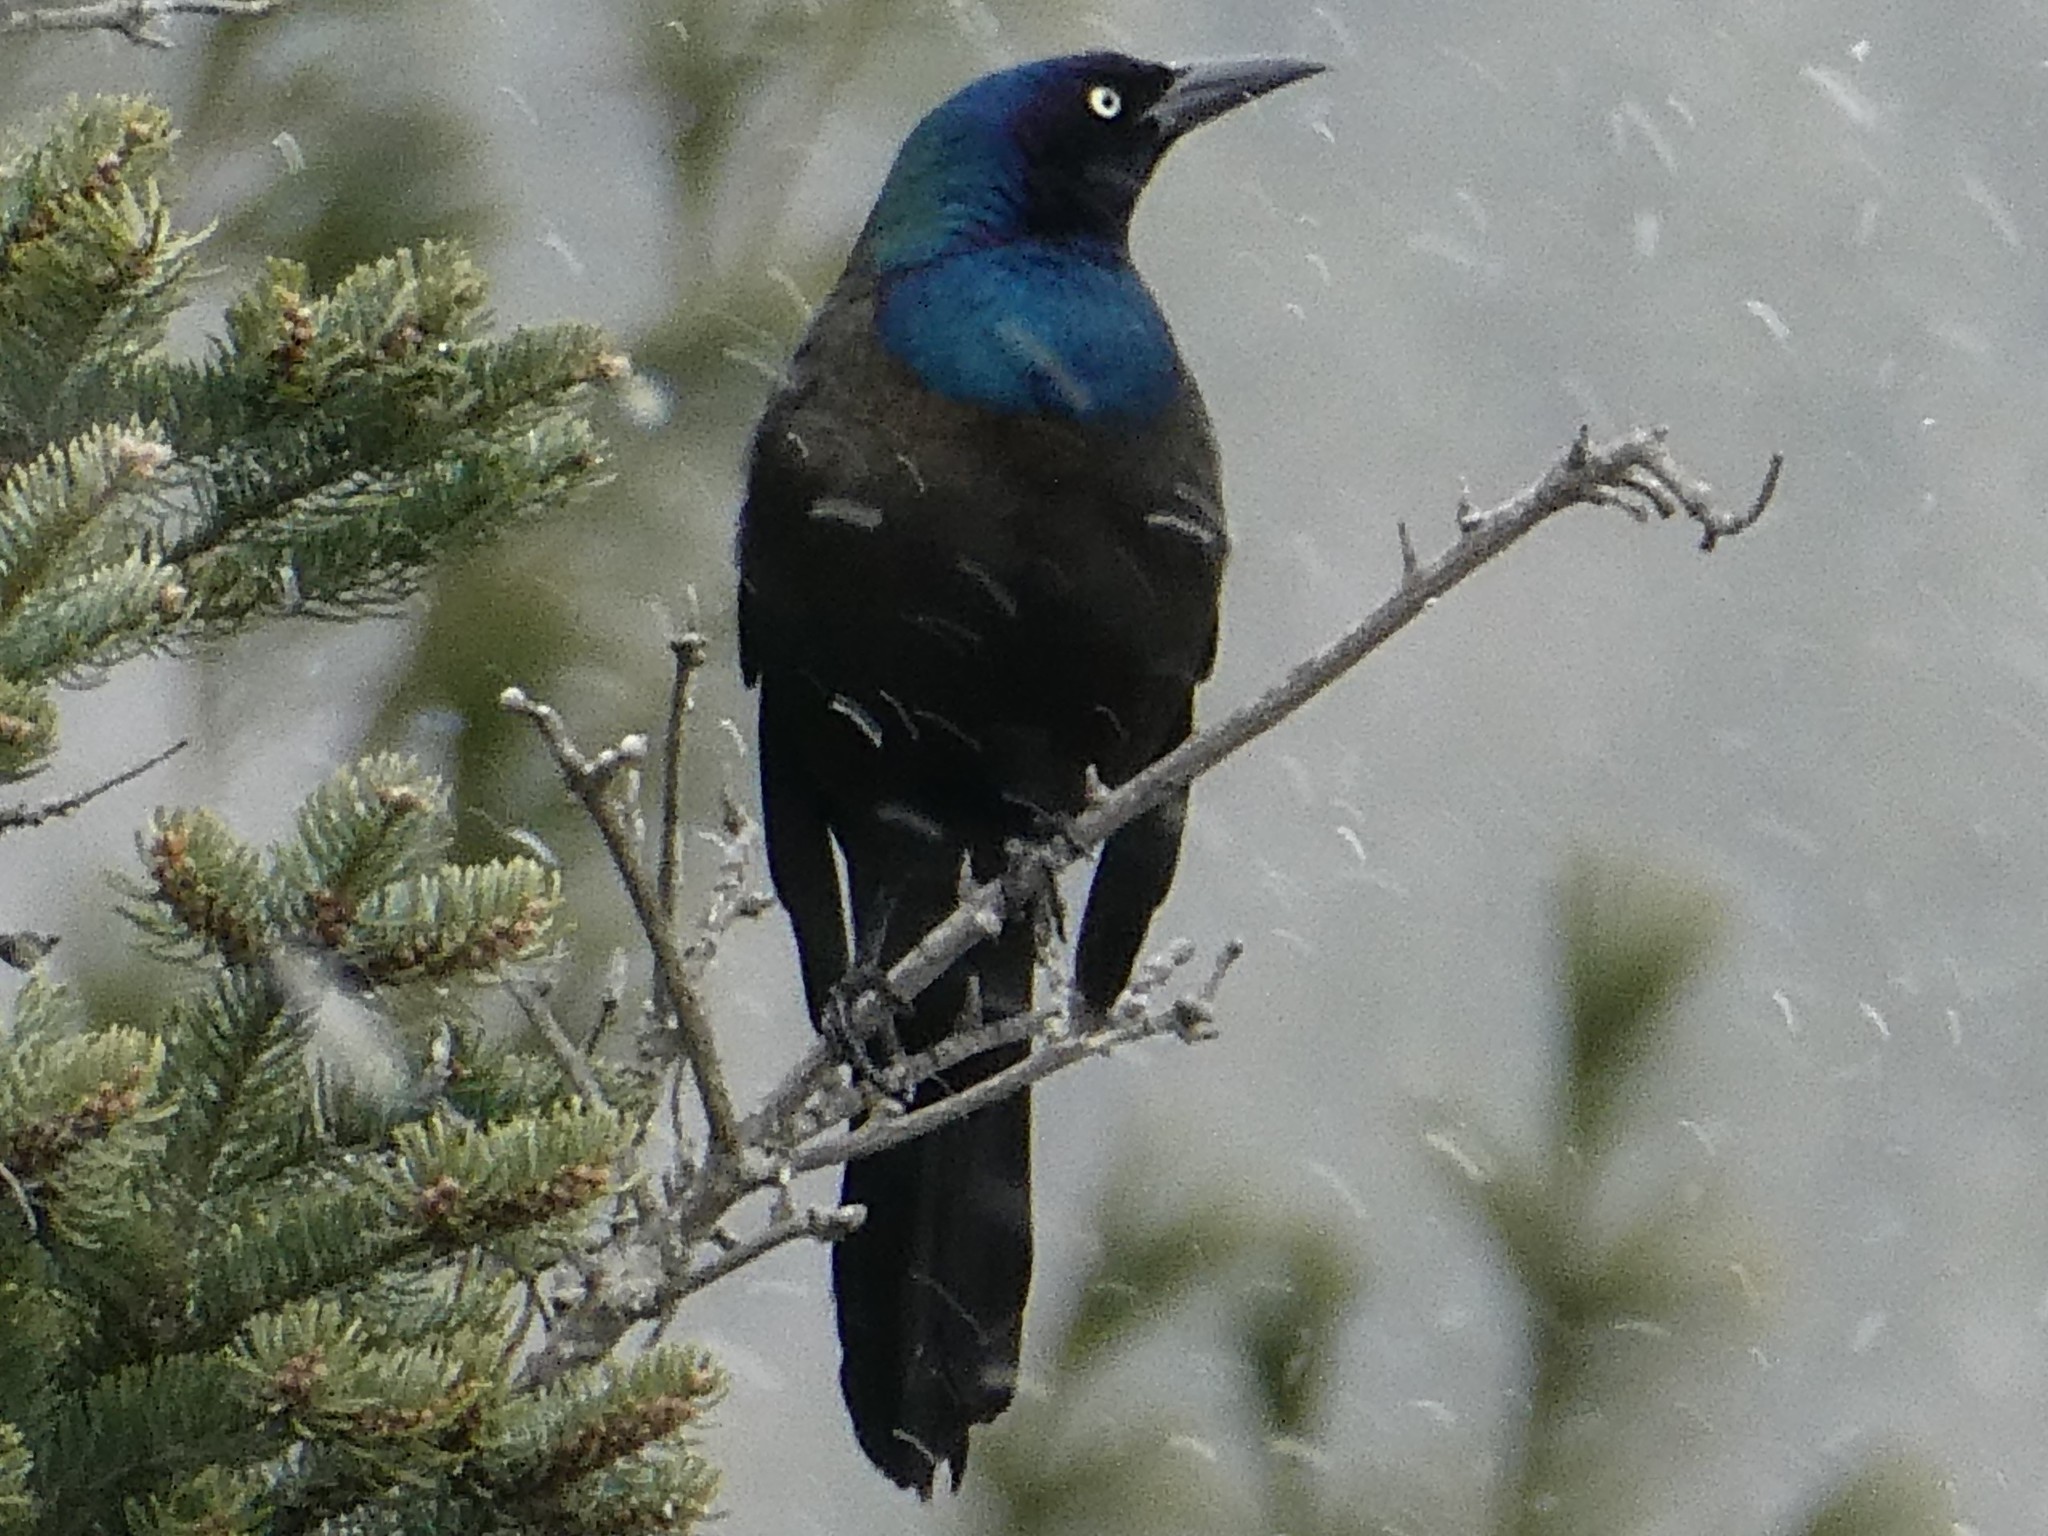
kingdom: Animalia
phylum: Chordata
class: Aves
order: Passeriformes
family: Icteridae
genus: Quiscalus
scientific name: Quiscalus quiscula
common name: Common grackle
